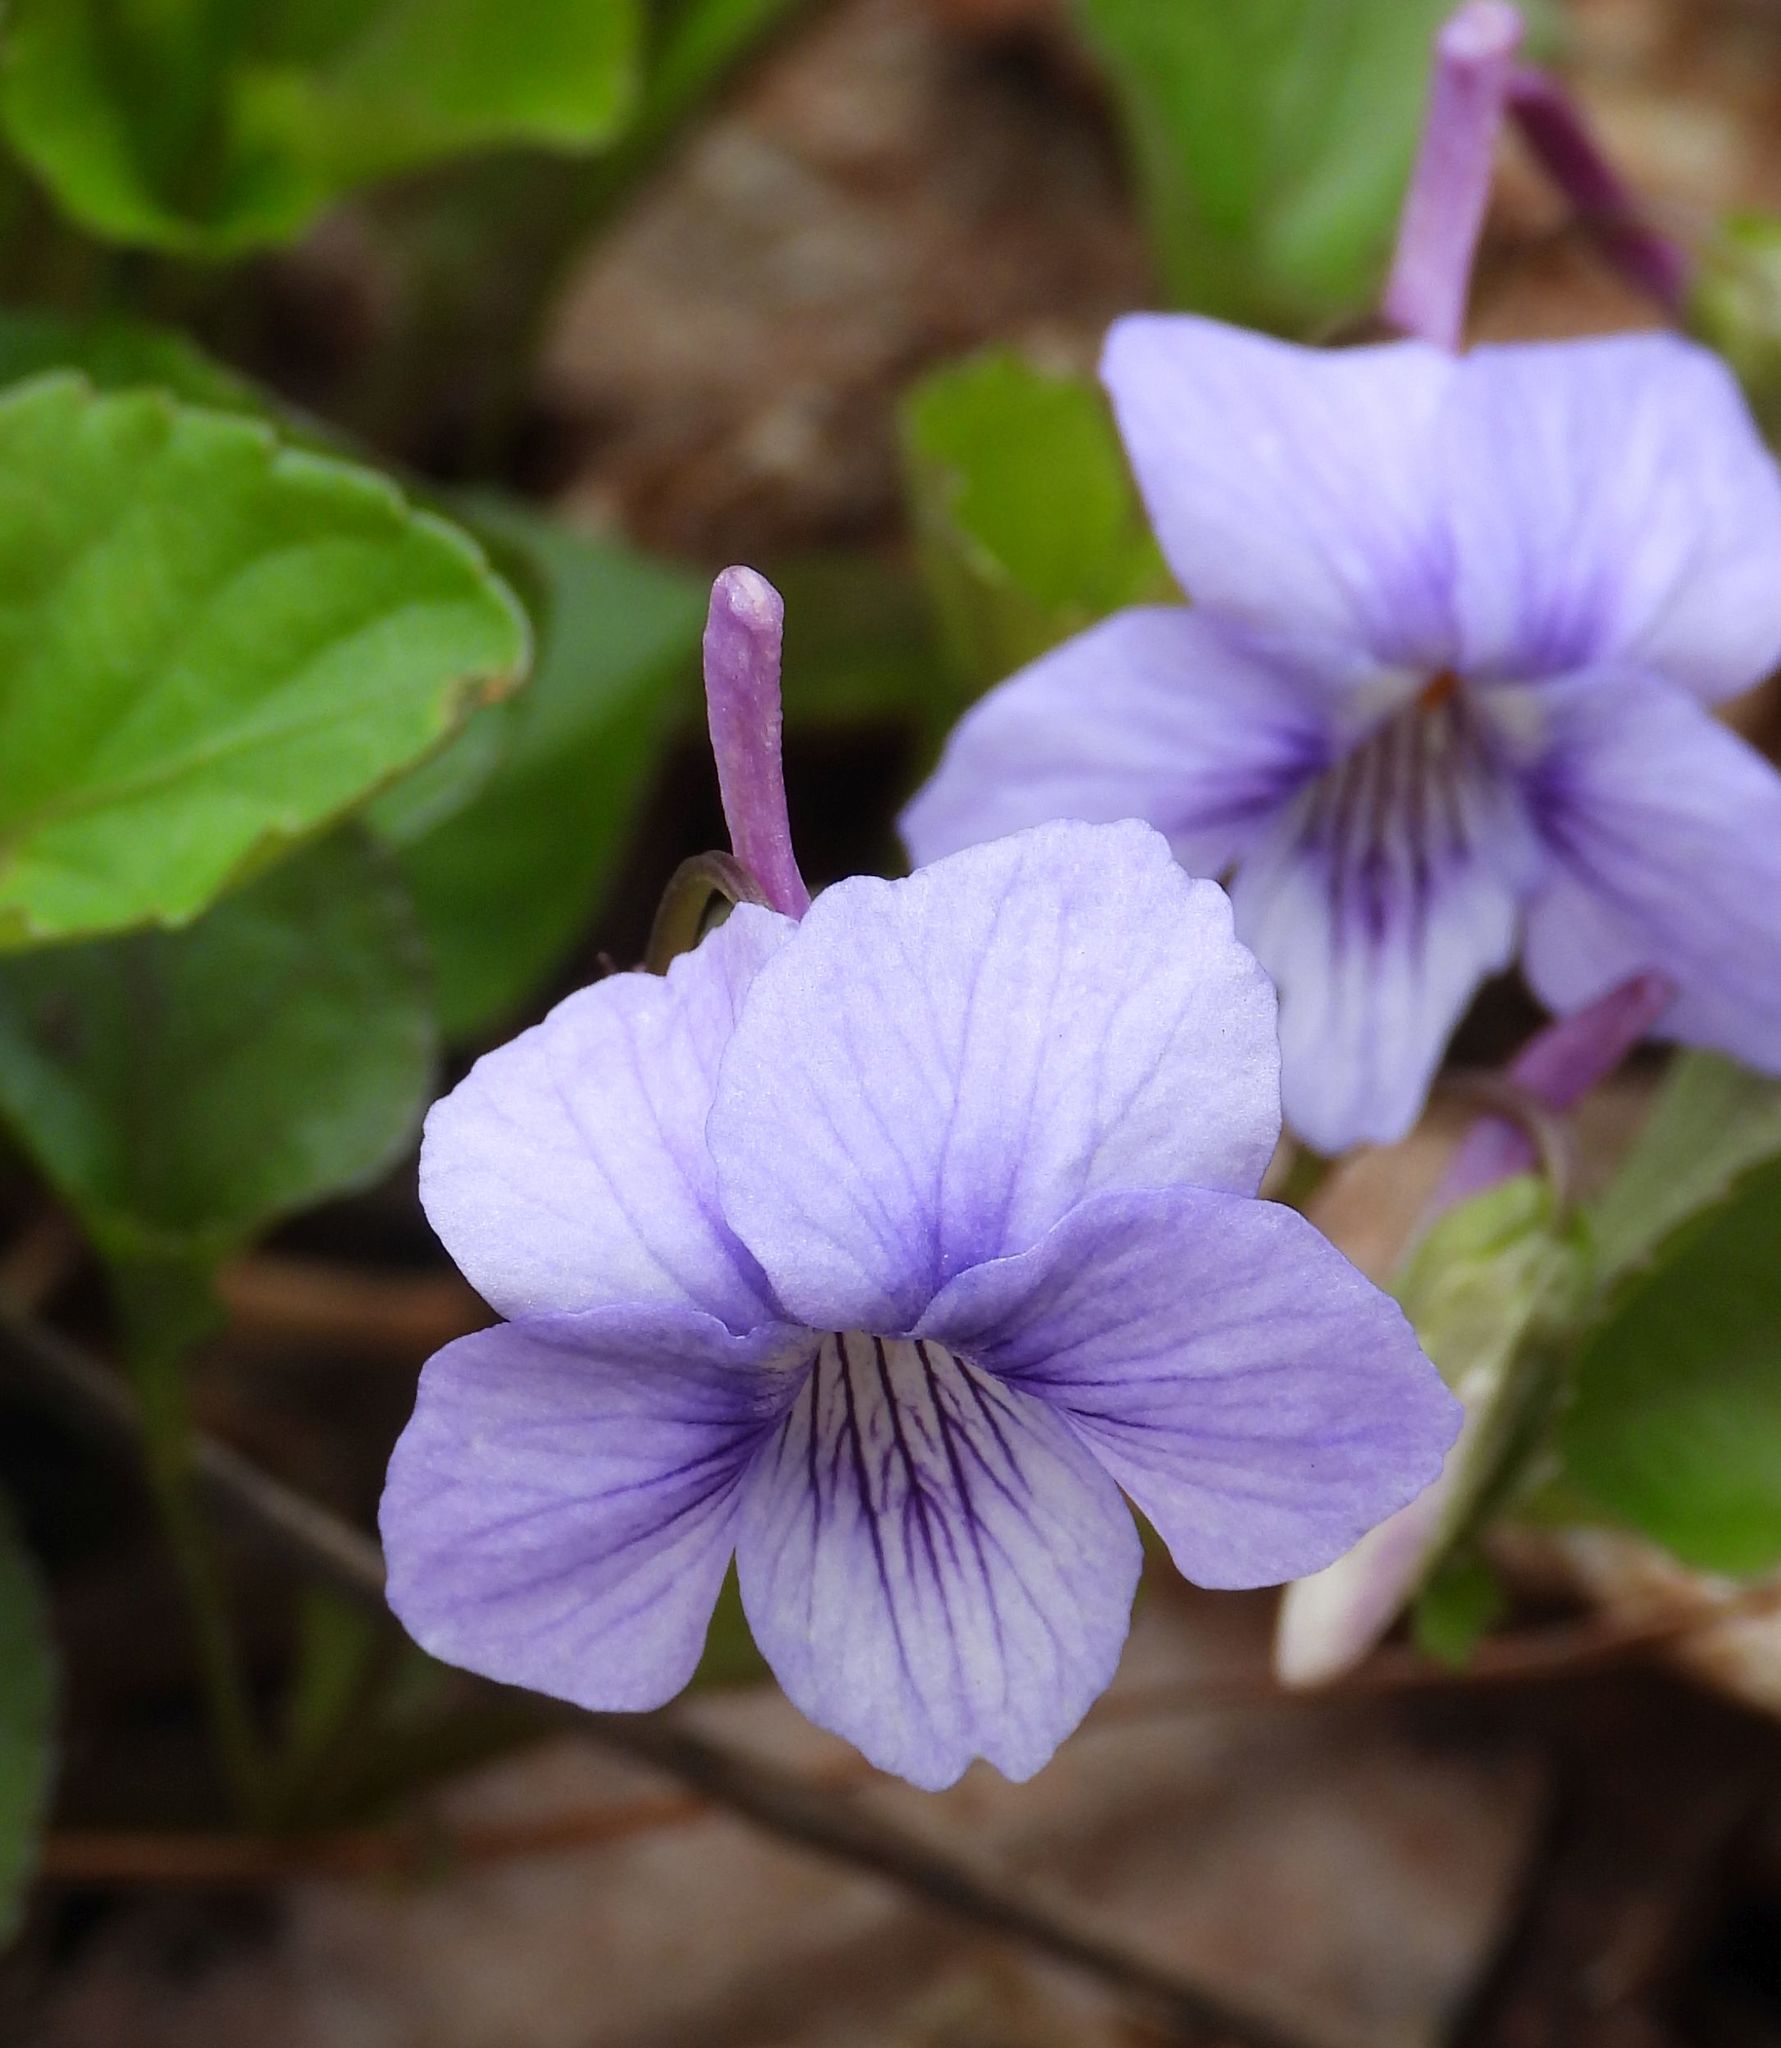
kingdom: Plantae
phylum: Tracheophyta
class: Magnoliopsida
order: Malpighiales
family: Violaceae
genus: Viola
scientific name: Viola rostrata
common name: Long-spur violet
